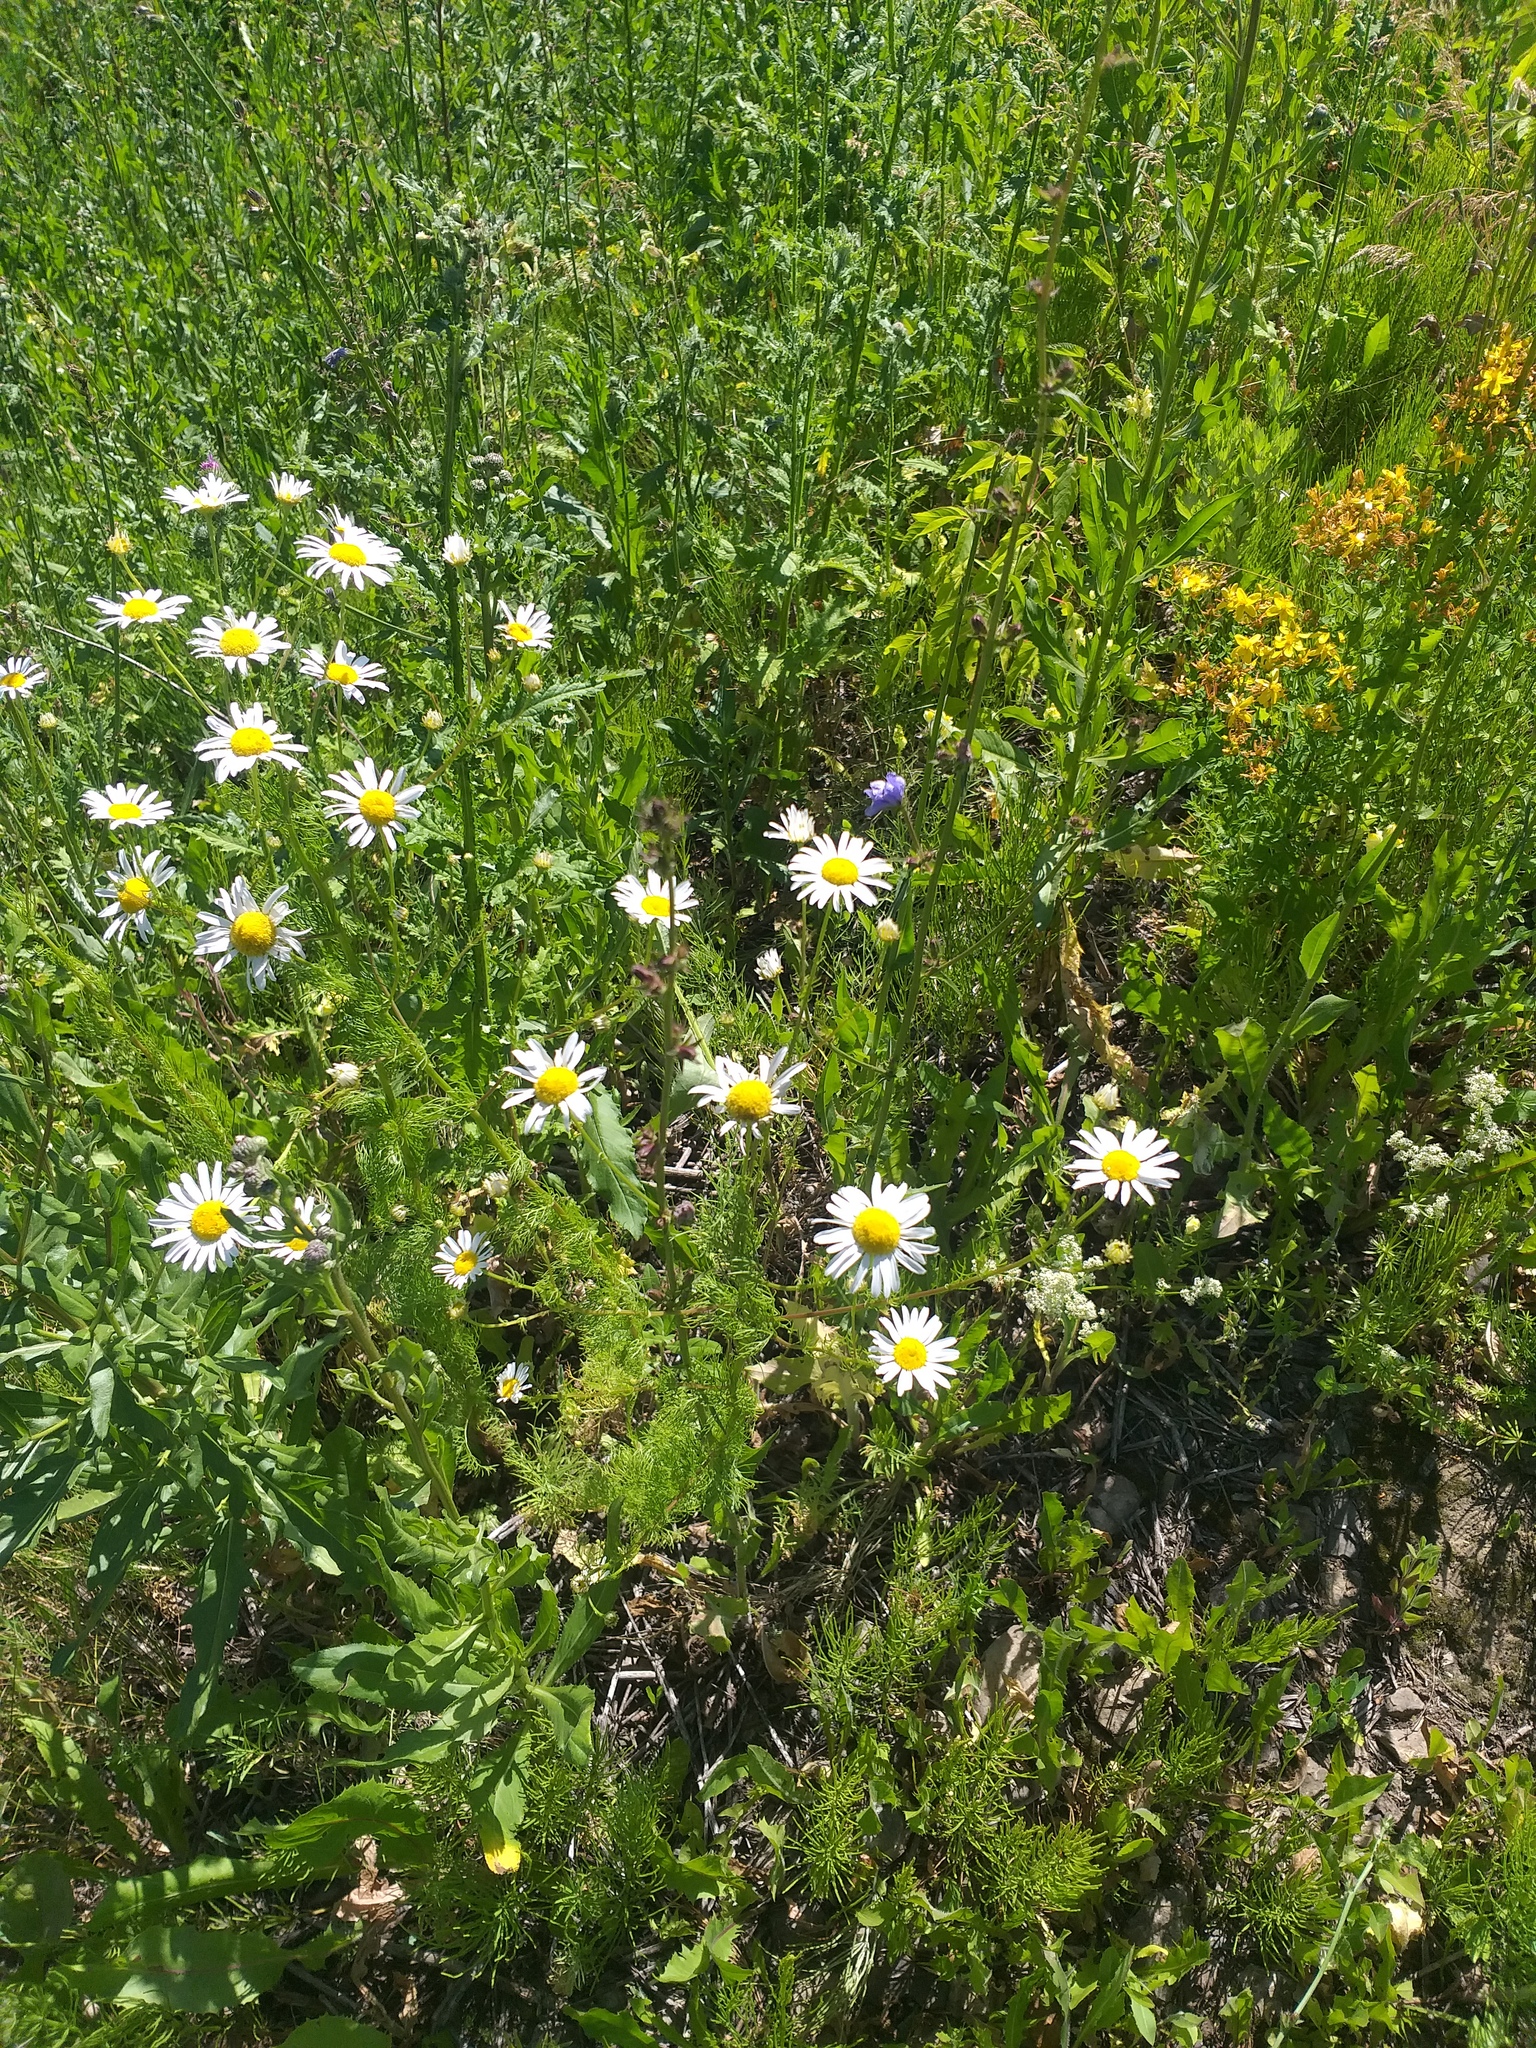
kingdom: Plantae
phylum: Tracheophyta
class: Magnoliopsida
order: Asterales
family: Asteraceae
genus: Tripleurospermum
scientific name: Tripleurospermum inodorum
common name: Scentless mayweed
